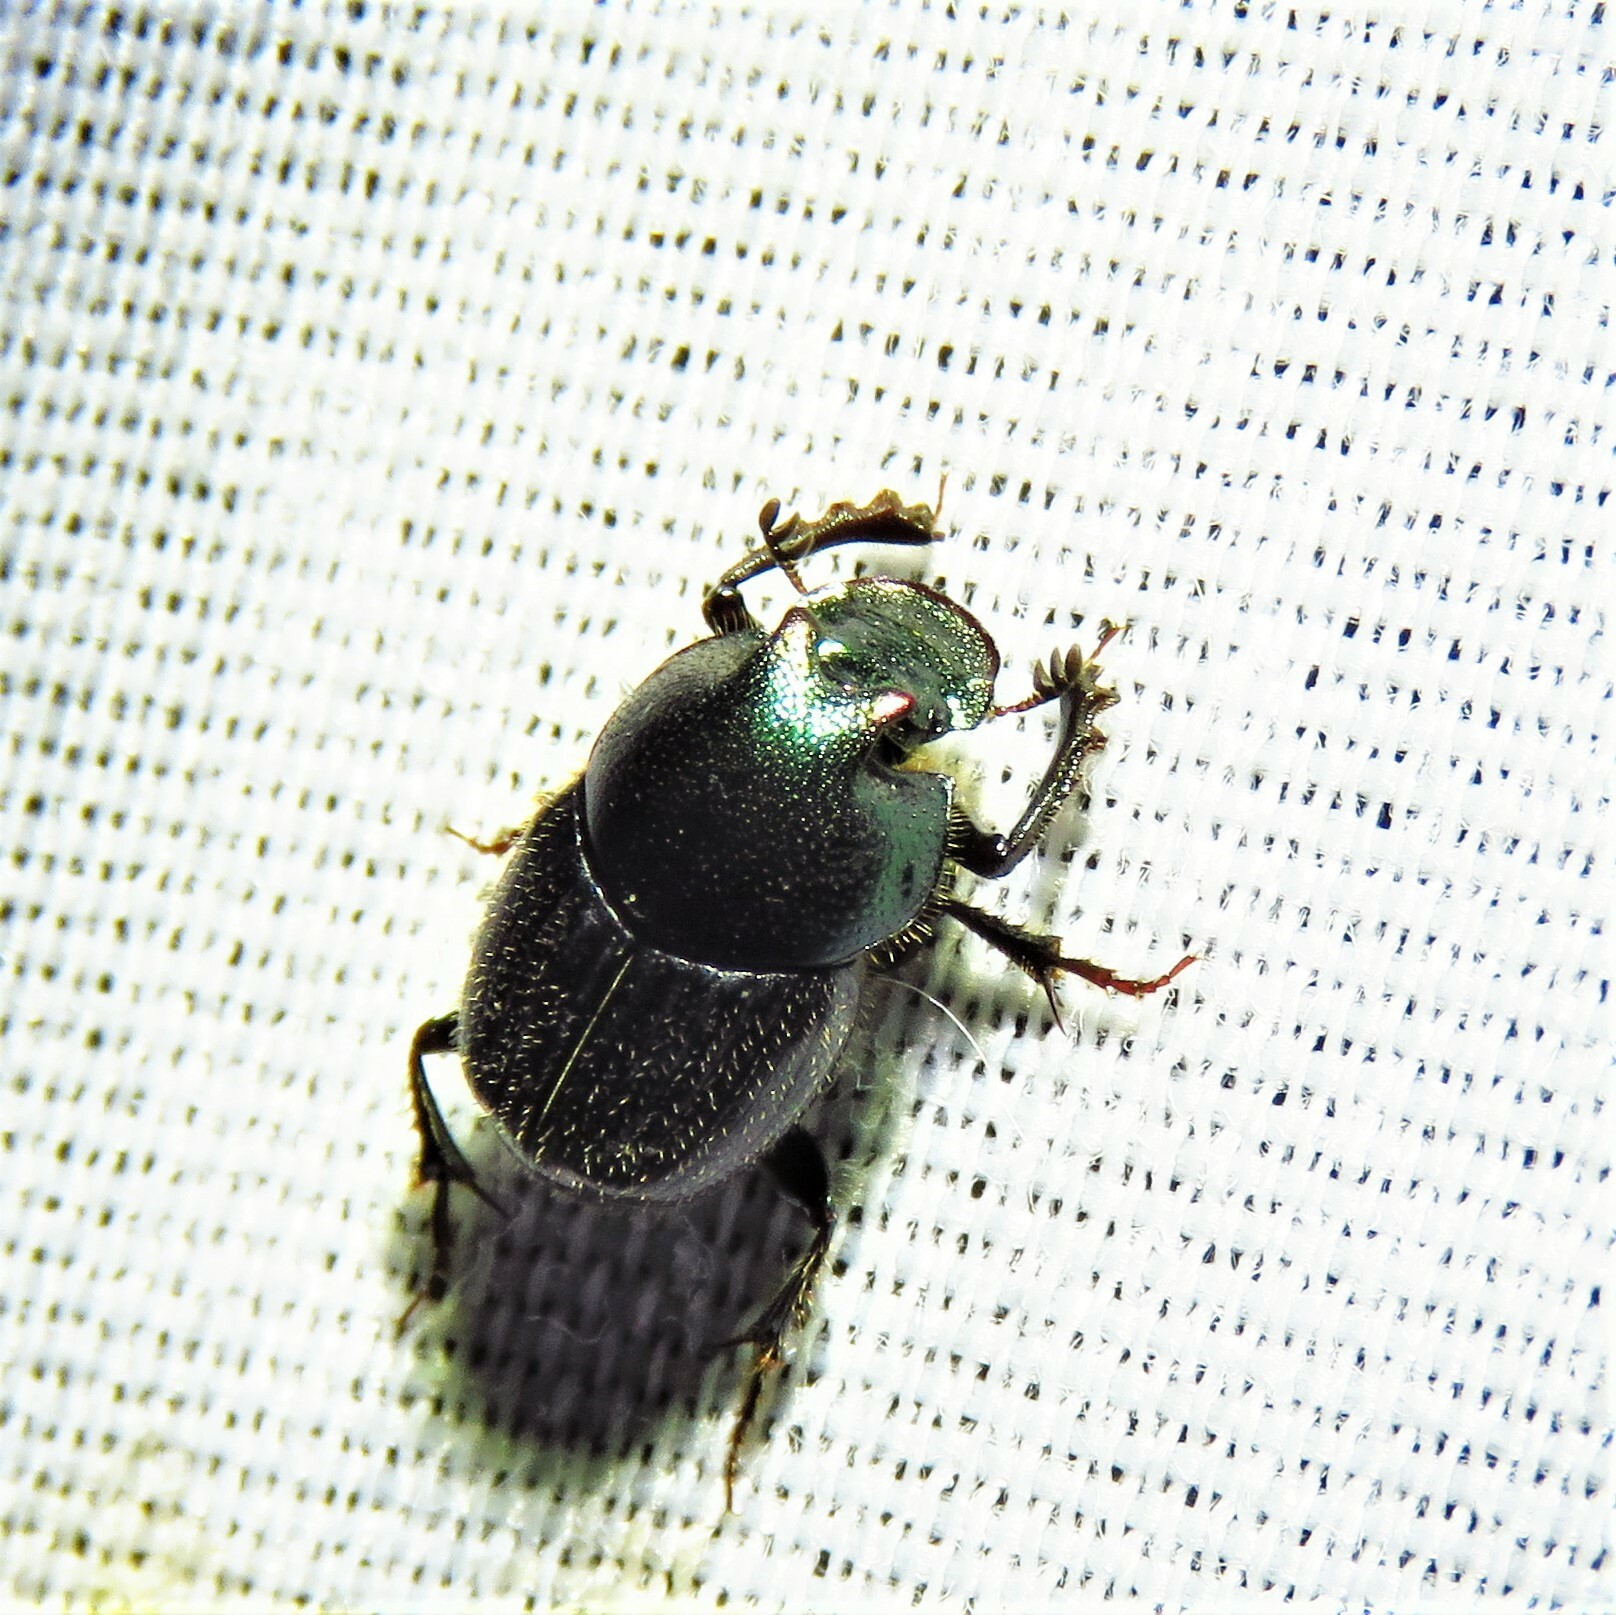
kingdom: Animalia
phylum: Arthropoda
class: Insecta
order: Coleoptera
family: Scarabaeidae
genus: Onthophagus
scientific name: Onthophagus orpheus
